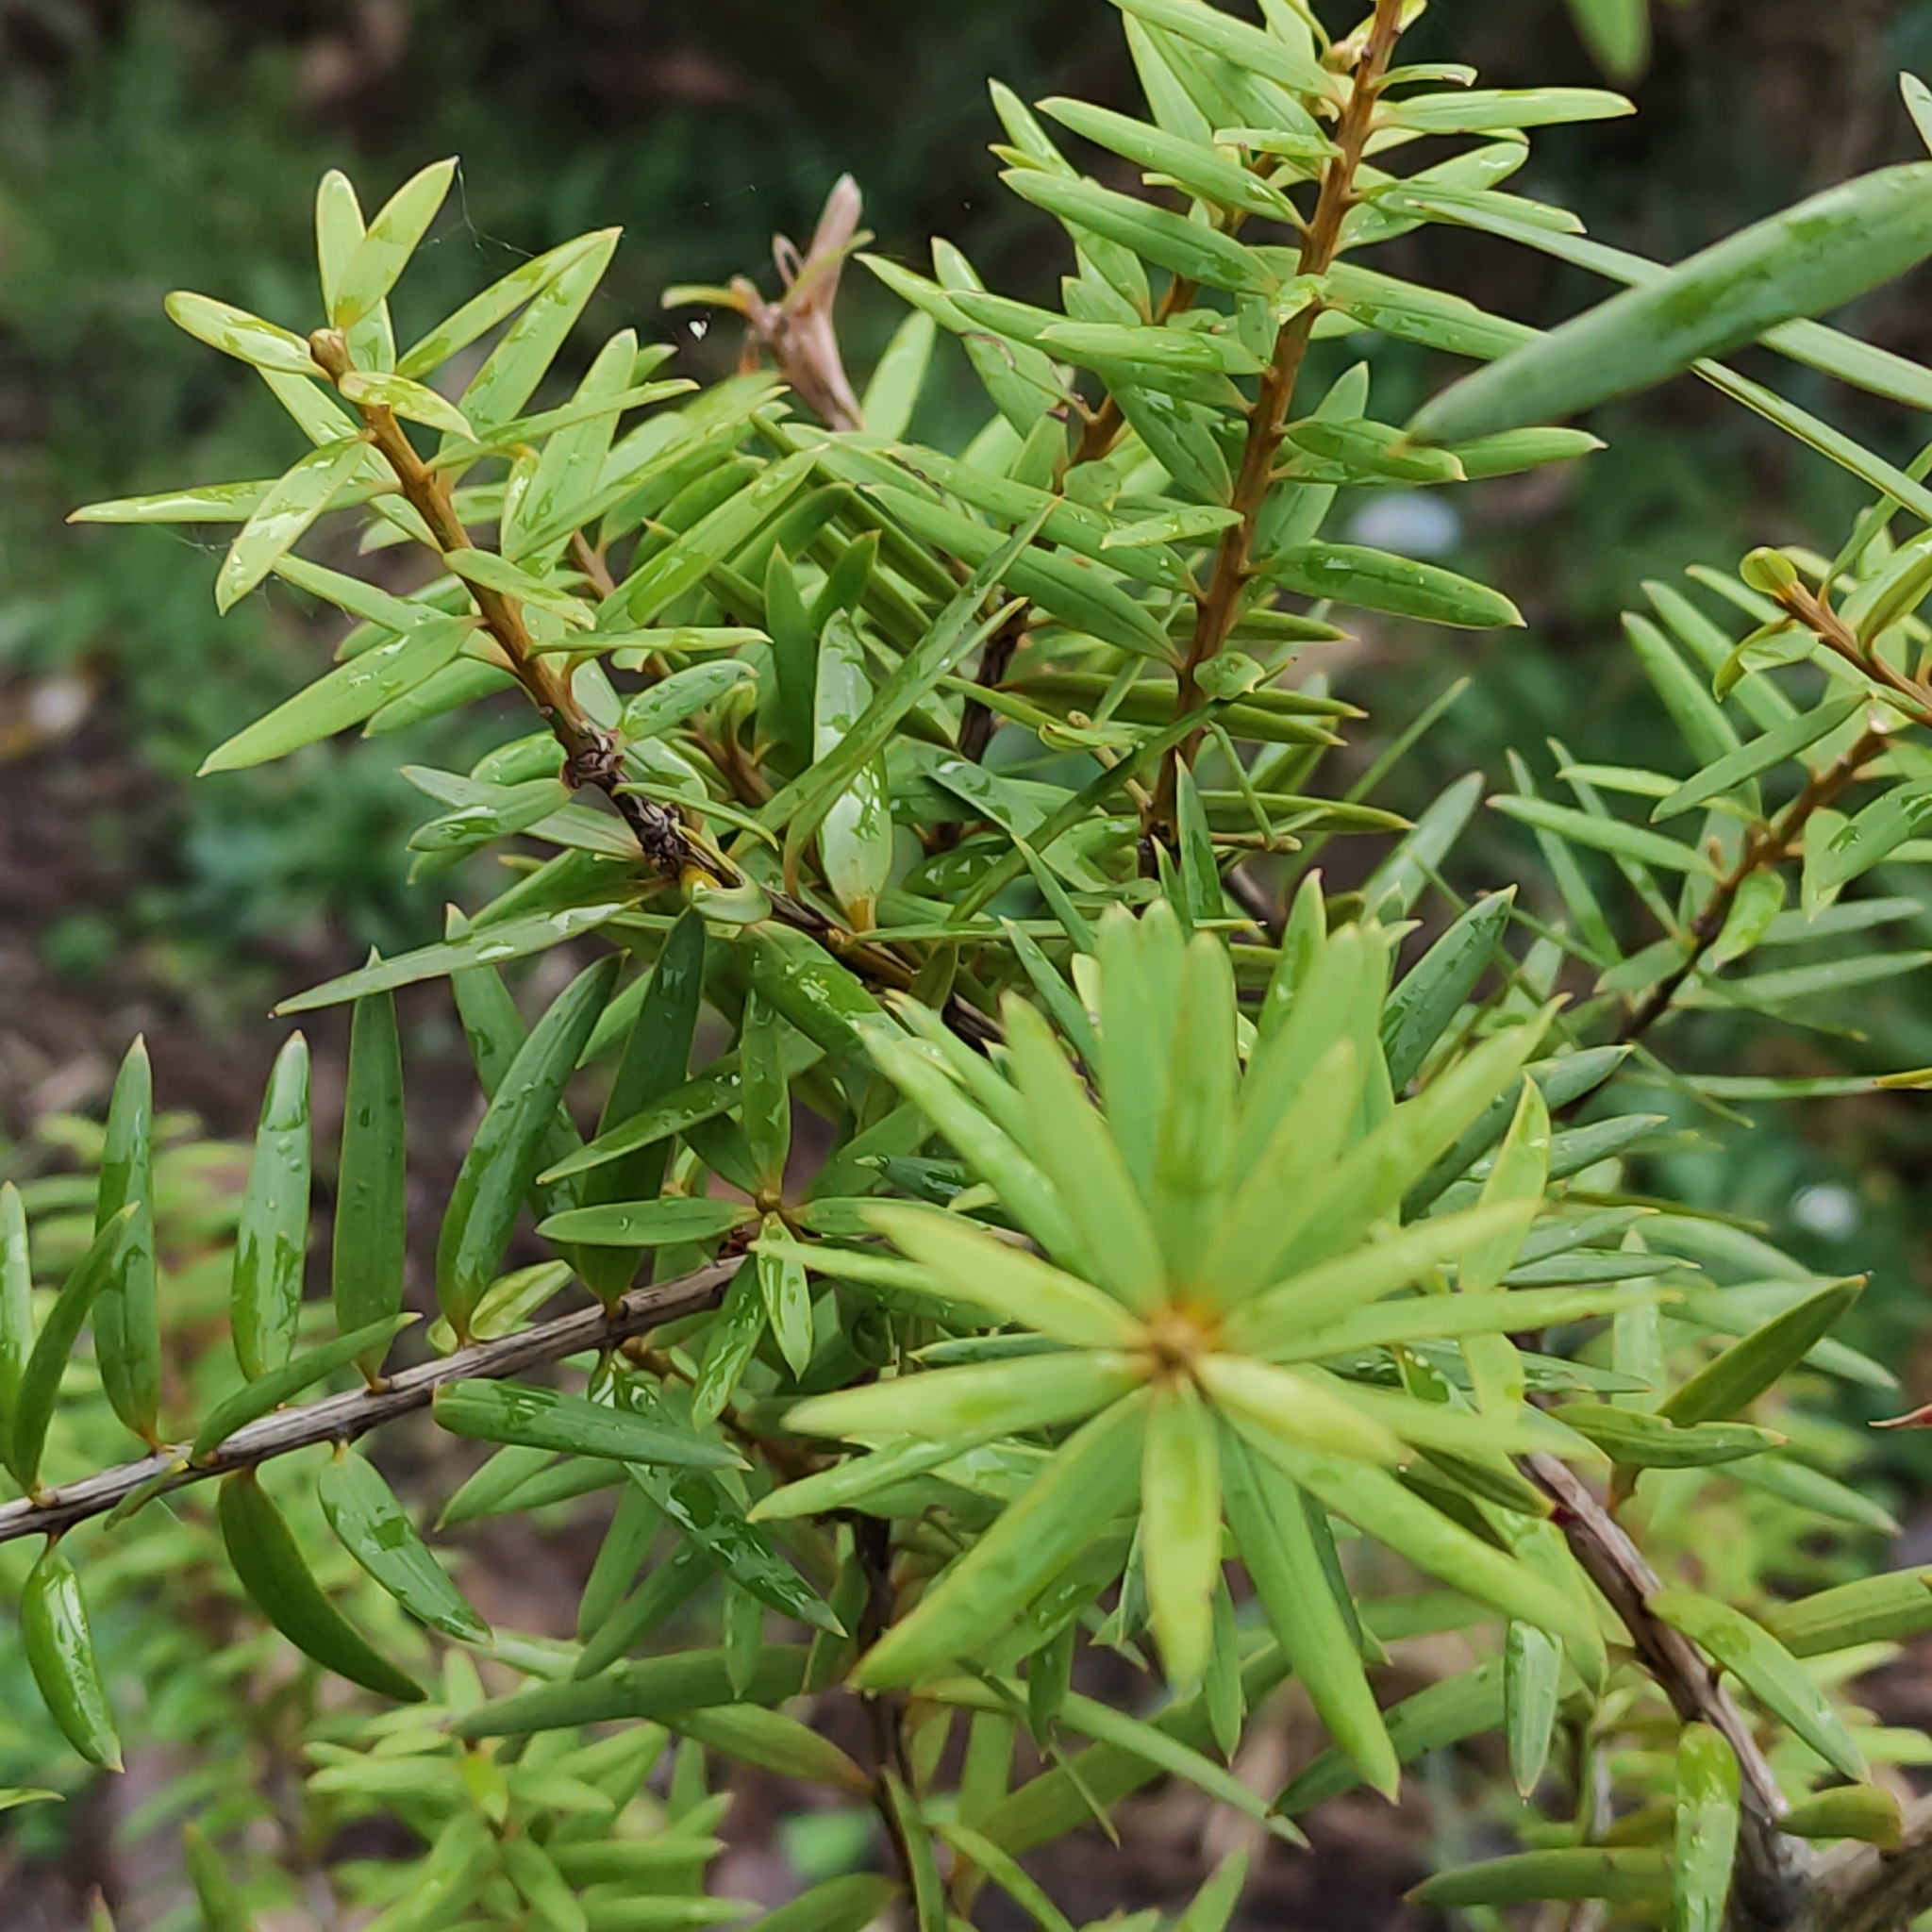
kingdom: Plantae
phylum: Tracheophyta
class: Pinopsida
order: Pinales
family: Podocarpaceae
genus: Podocarpus
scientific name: Podocarpus totara
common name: Totara
